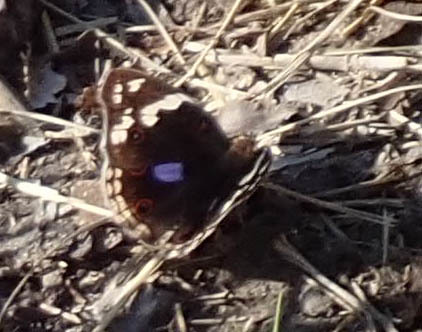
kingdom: Animalia
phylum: Arthropoda
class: Insecta
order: Lepidoptera
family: Nymphalidae
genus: Junonia
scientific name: Junonia oenone
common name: Dark blue pansy
